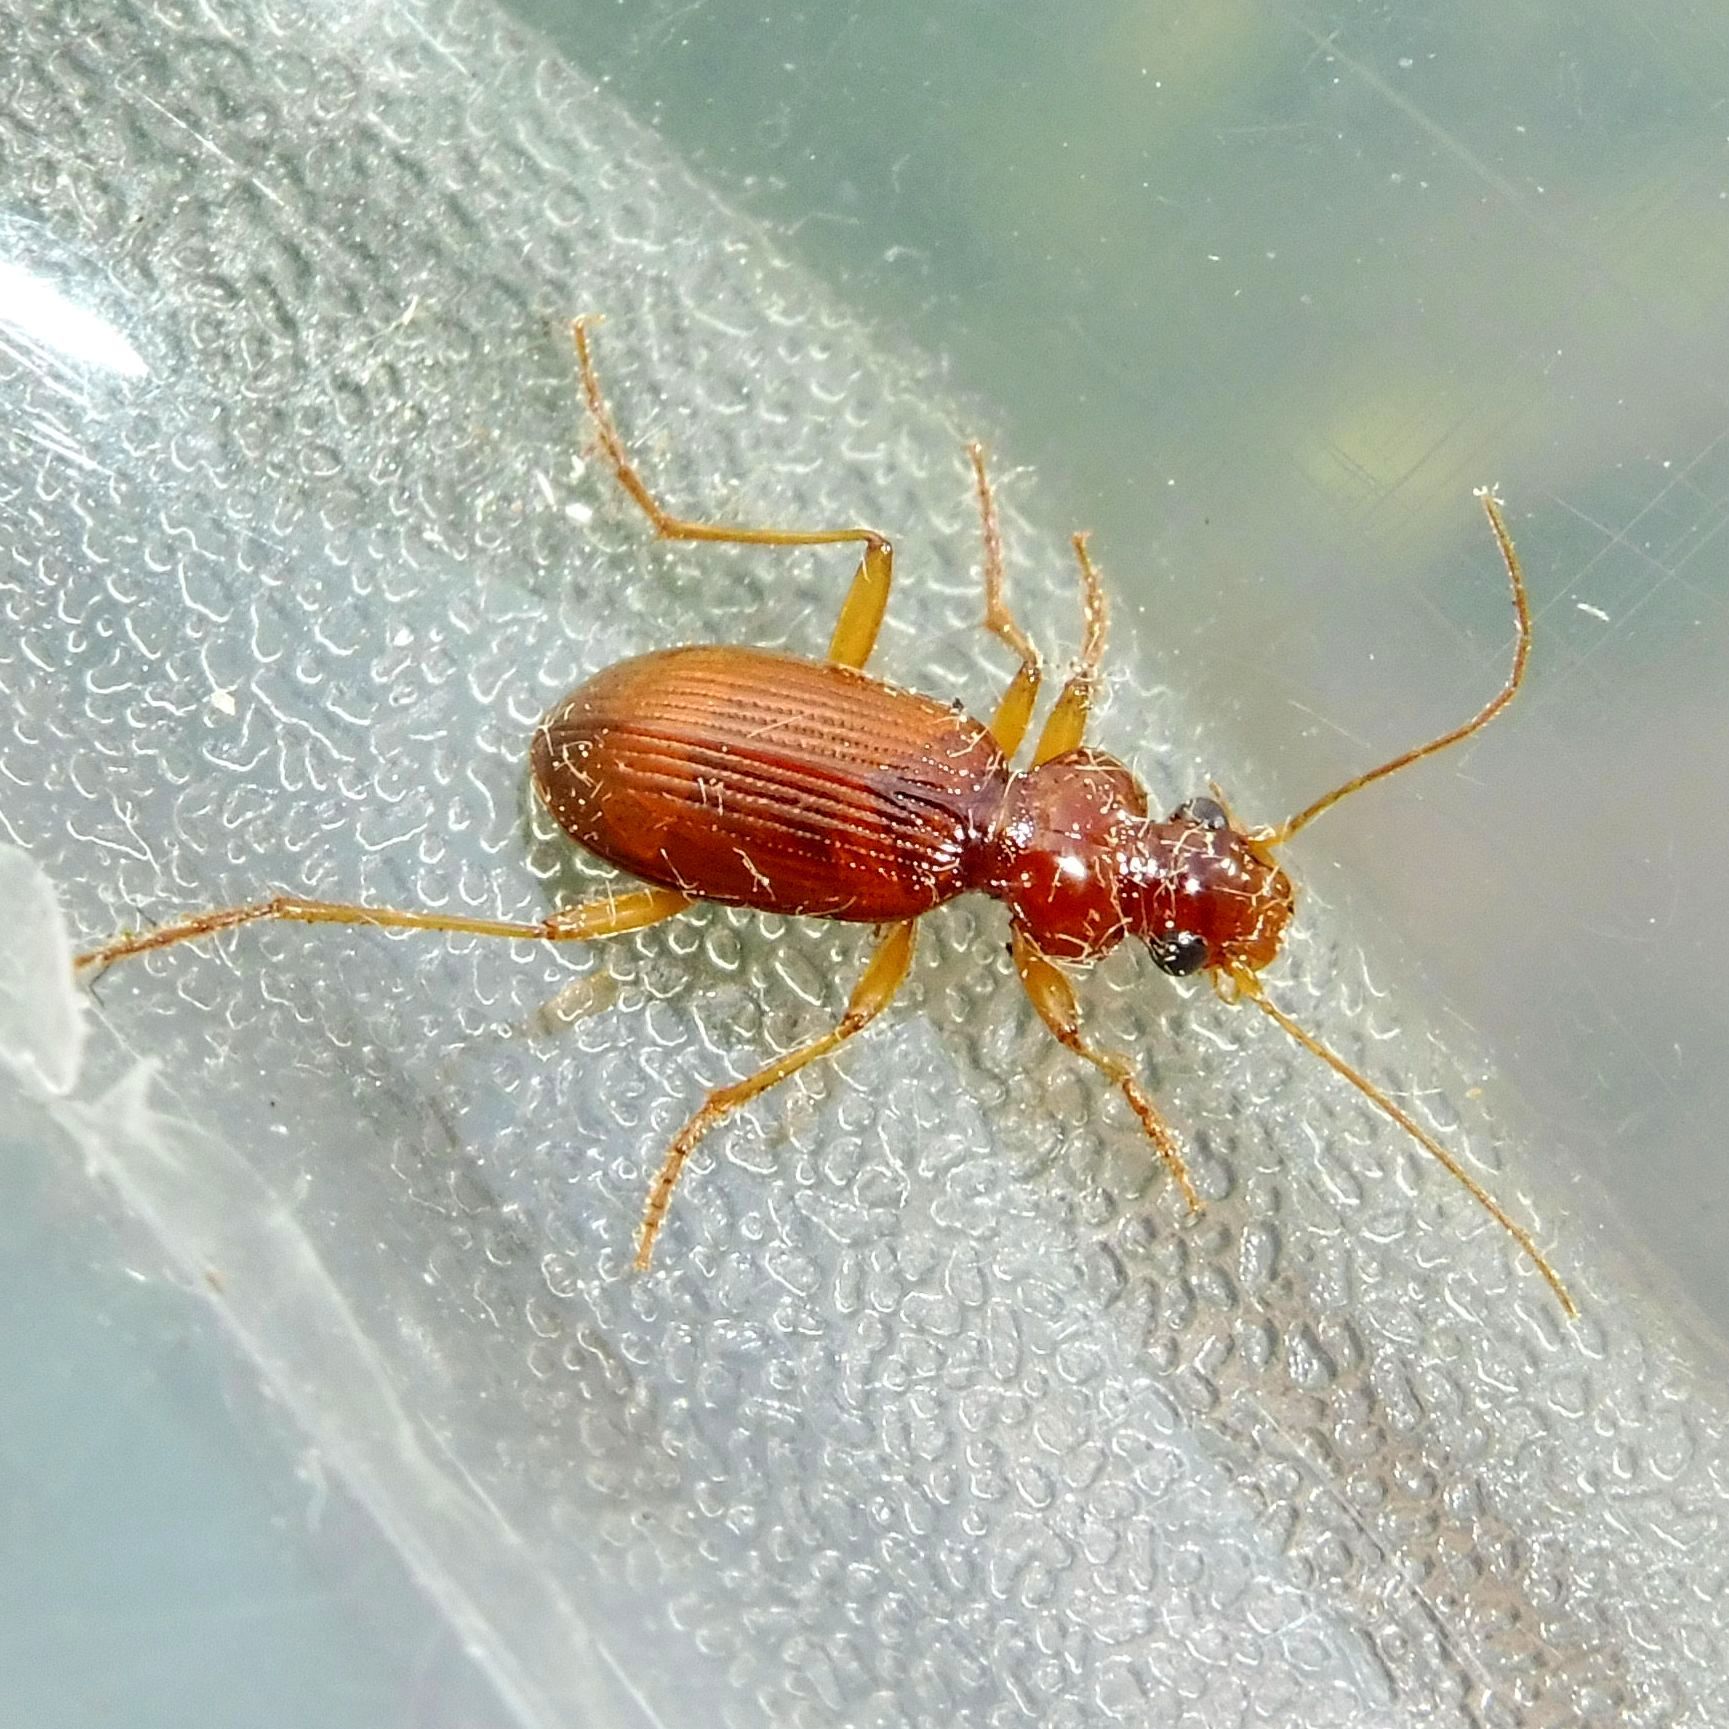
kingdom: Animalia
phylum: Arthropoda
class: Insecta
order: Coleoptera
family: Carabidae
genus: Leistus
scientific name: Leistus ferrugineus
